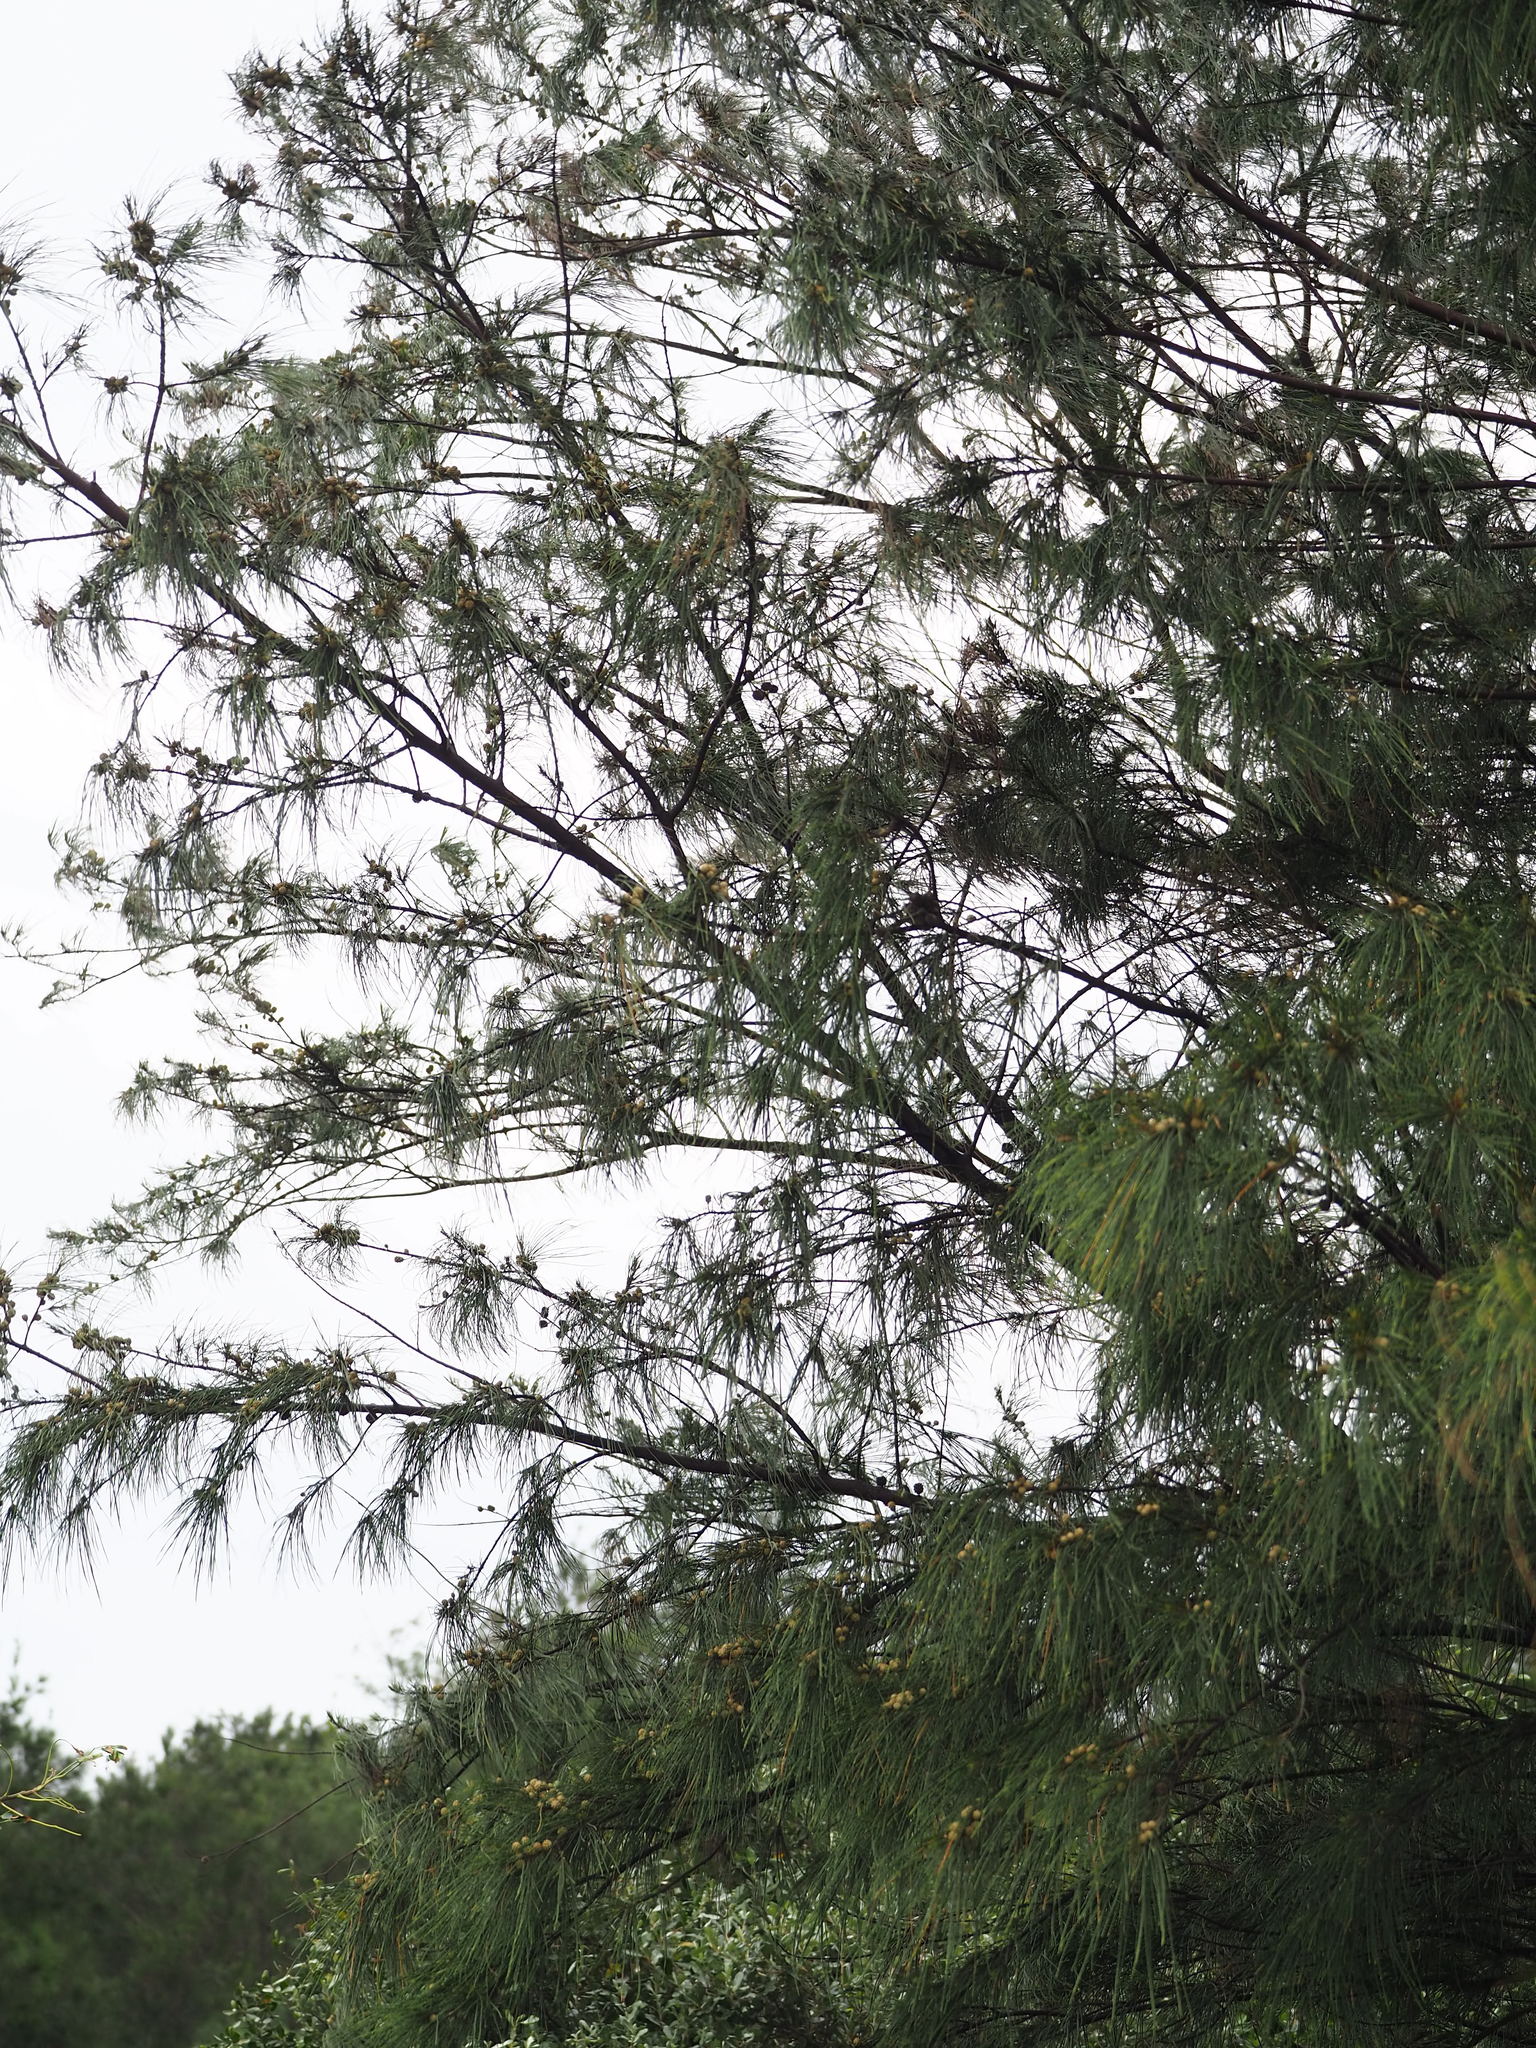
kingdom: Plantae
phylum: Tracheophyta
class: Magnoliopsida
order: Fagales
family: Casuarinaceae
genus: Casuarina
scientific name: Casuarina equisetifolia
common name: Beach sheoak
